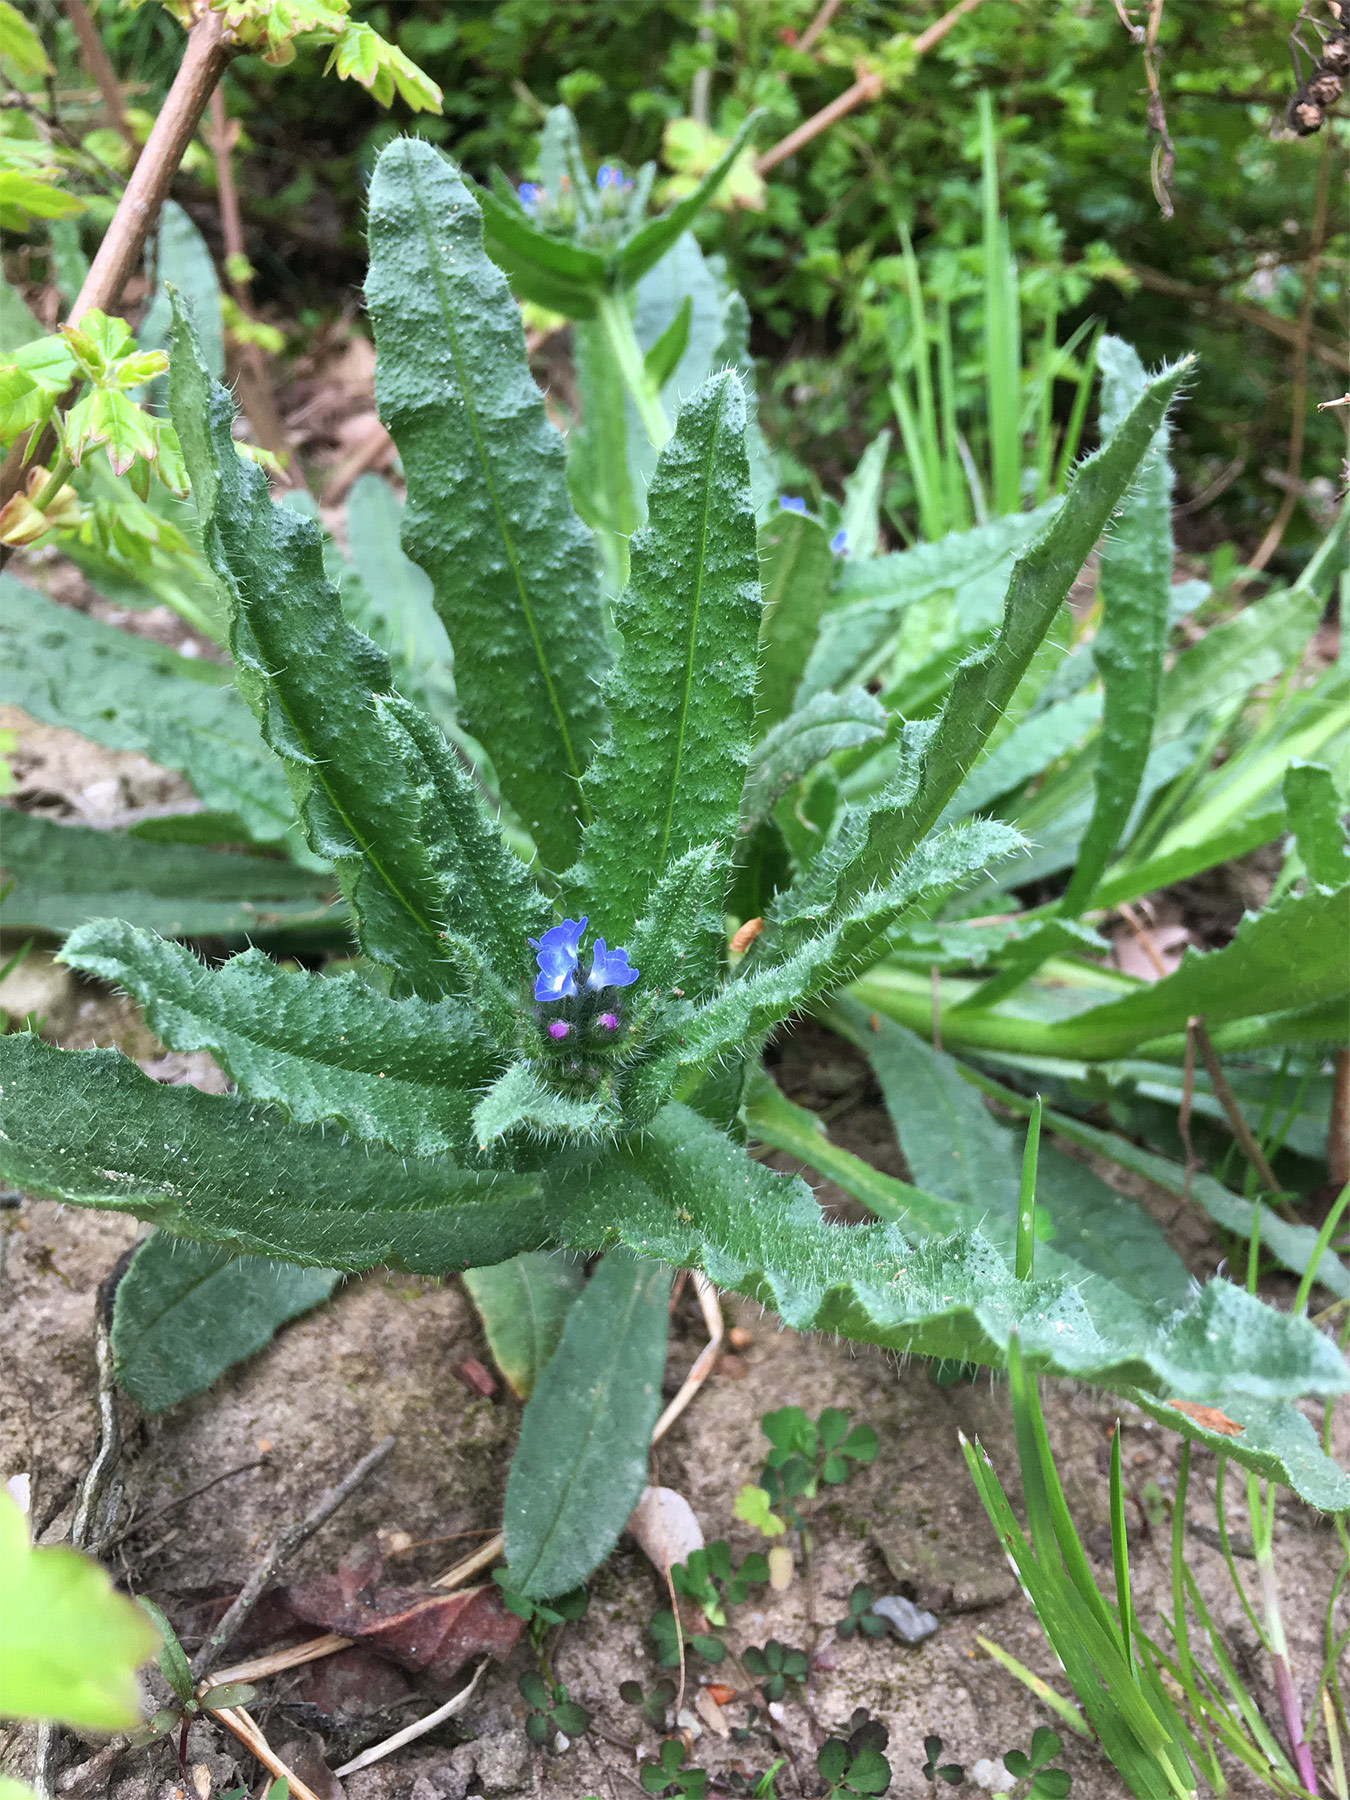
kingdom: Plantae
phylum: Tracheophyta
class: Magnoliopsida
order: Boraginales
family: Boraginaceae
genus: Lycopsis
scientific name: Lycopsis arvensis
